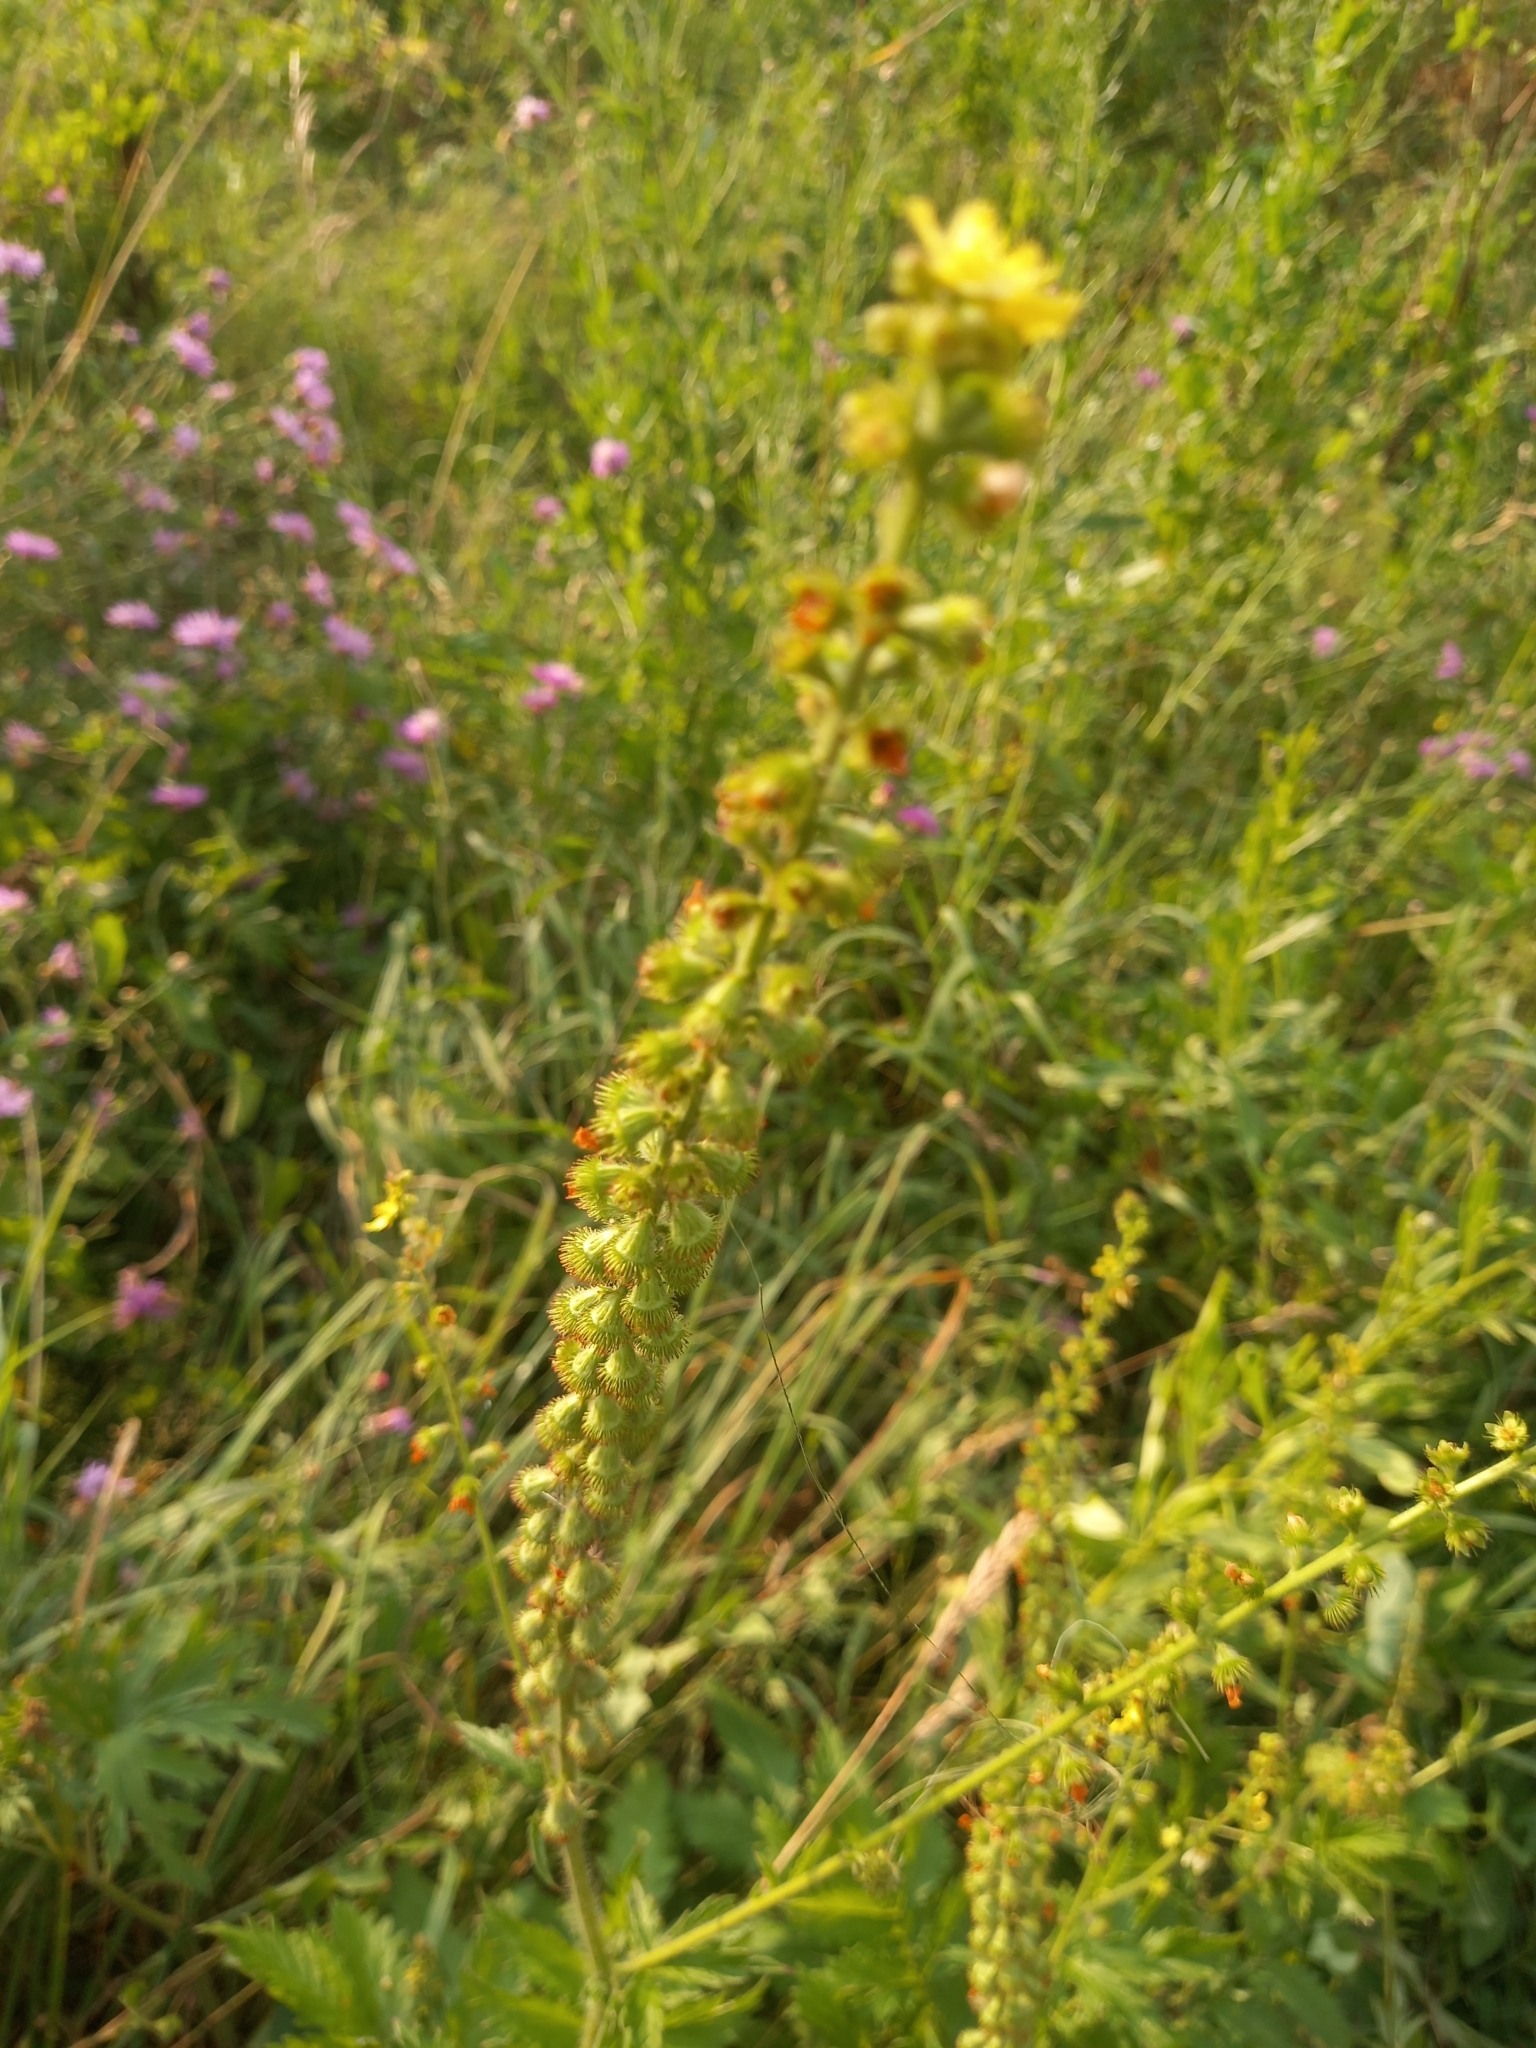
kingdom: Plantae
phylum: Tracheophyta
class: Magnoliopsida
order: Rosales
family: Rosaceae
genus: Agrimonia
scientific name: Agrimonia eupatoria
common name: Agrimony
